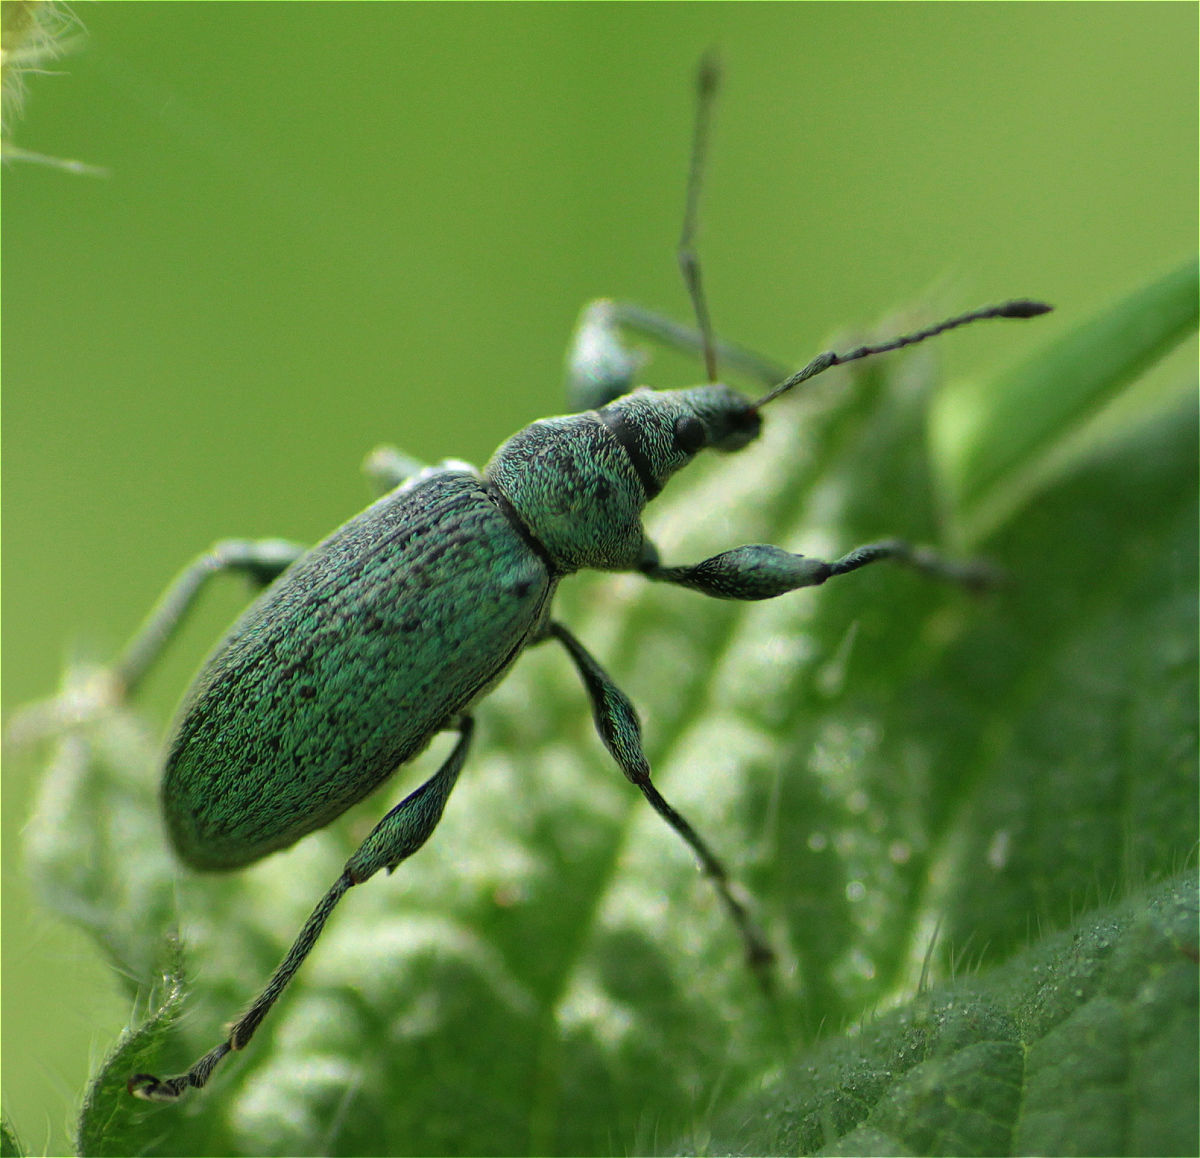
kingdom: Animalia
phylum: Arthropoda
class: Insecta
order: Coleoptera
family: Curculionidae
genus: Phyllobius
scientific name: Phyllobius pomaceus
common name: Green nettle weevil
